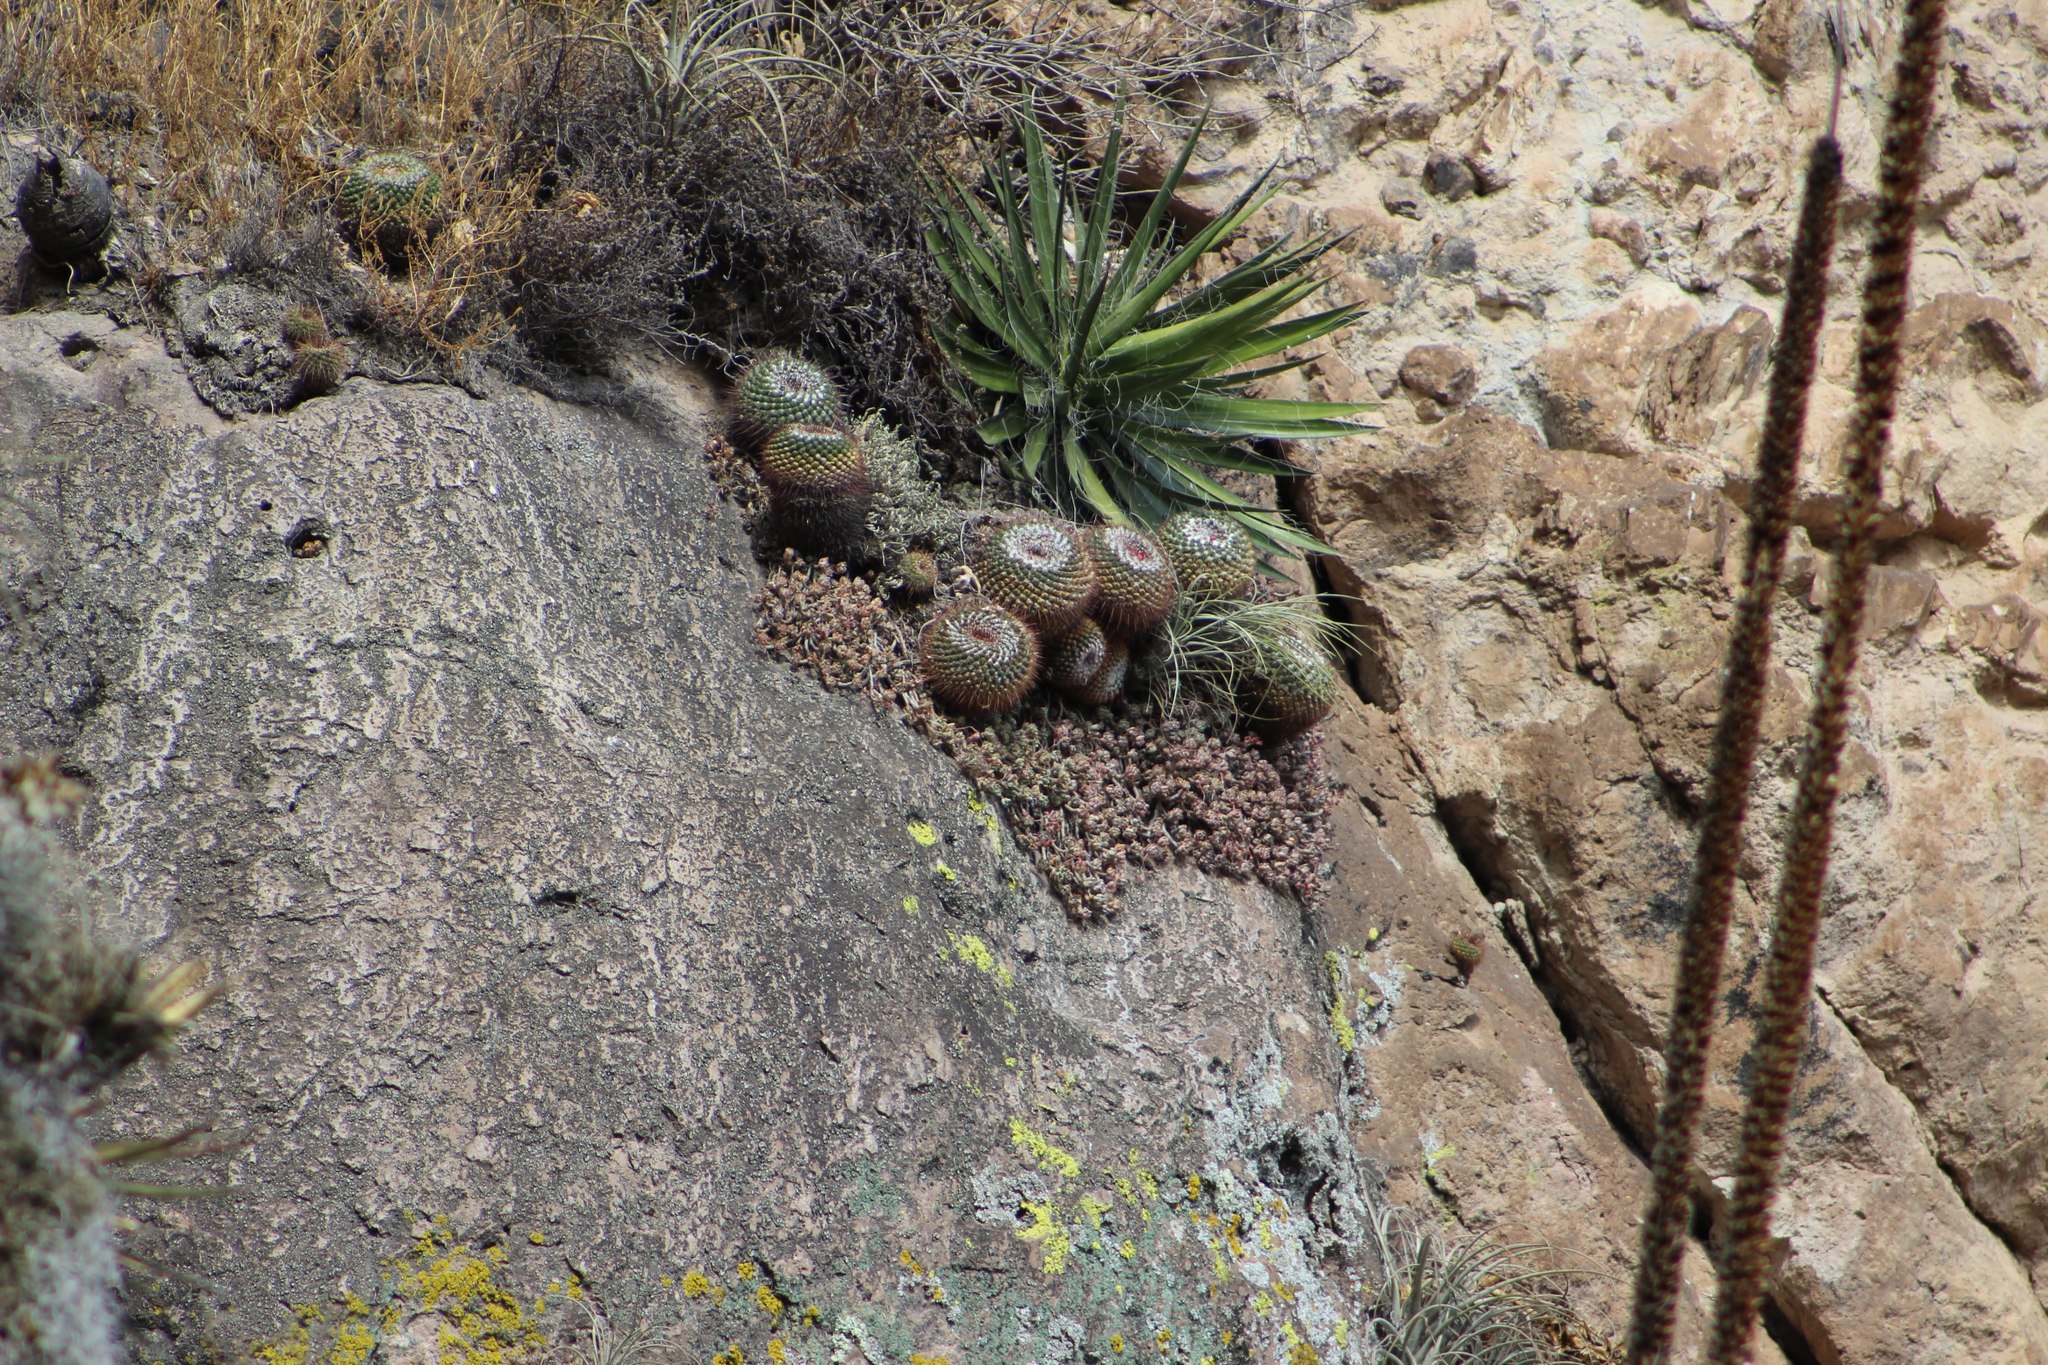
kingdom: Plantae
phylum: Tracheophyta
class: Magnoliopsida
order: Caryophyllales
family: Cactaceae
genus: Mammillaria
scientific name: Mammillaria petterssonii
